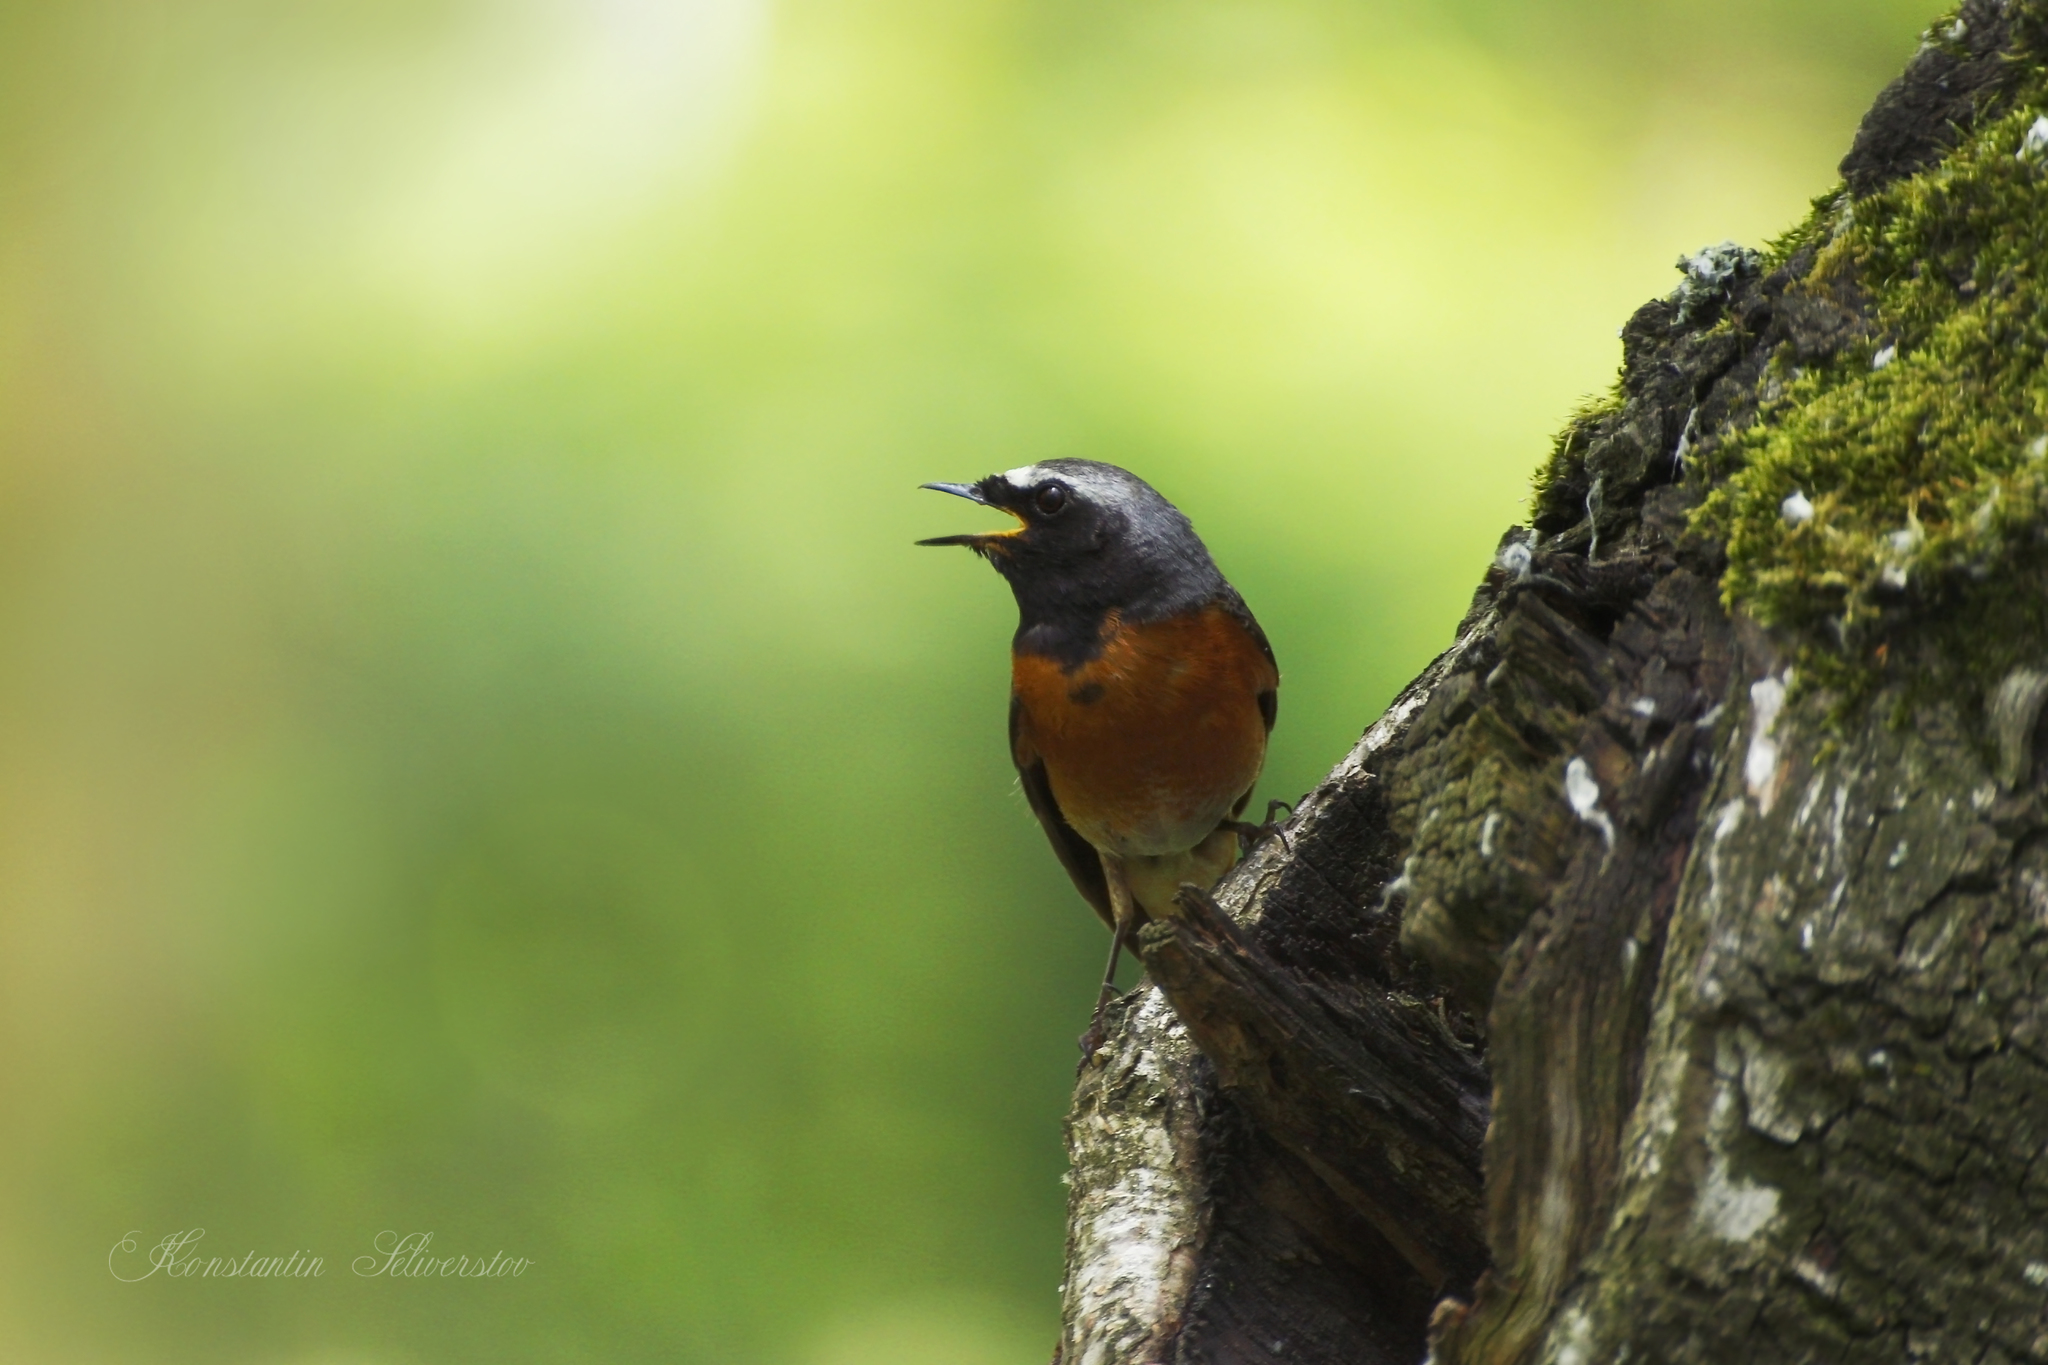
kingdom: Animalia
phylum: Chordata
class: Aves
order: Passeriformes
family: Muscicapidae
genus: Phoenicurus
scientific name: Phoenicurus phoenicurus
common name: Common redstart
